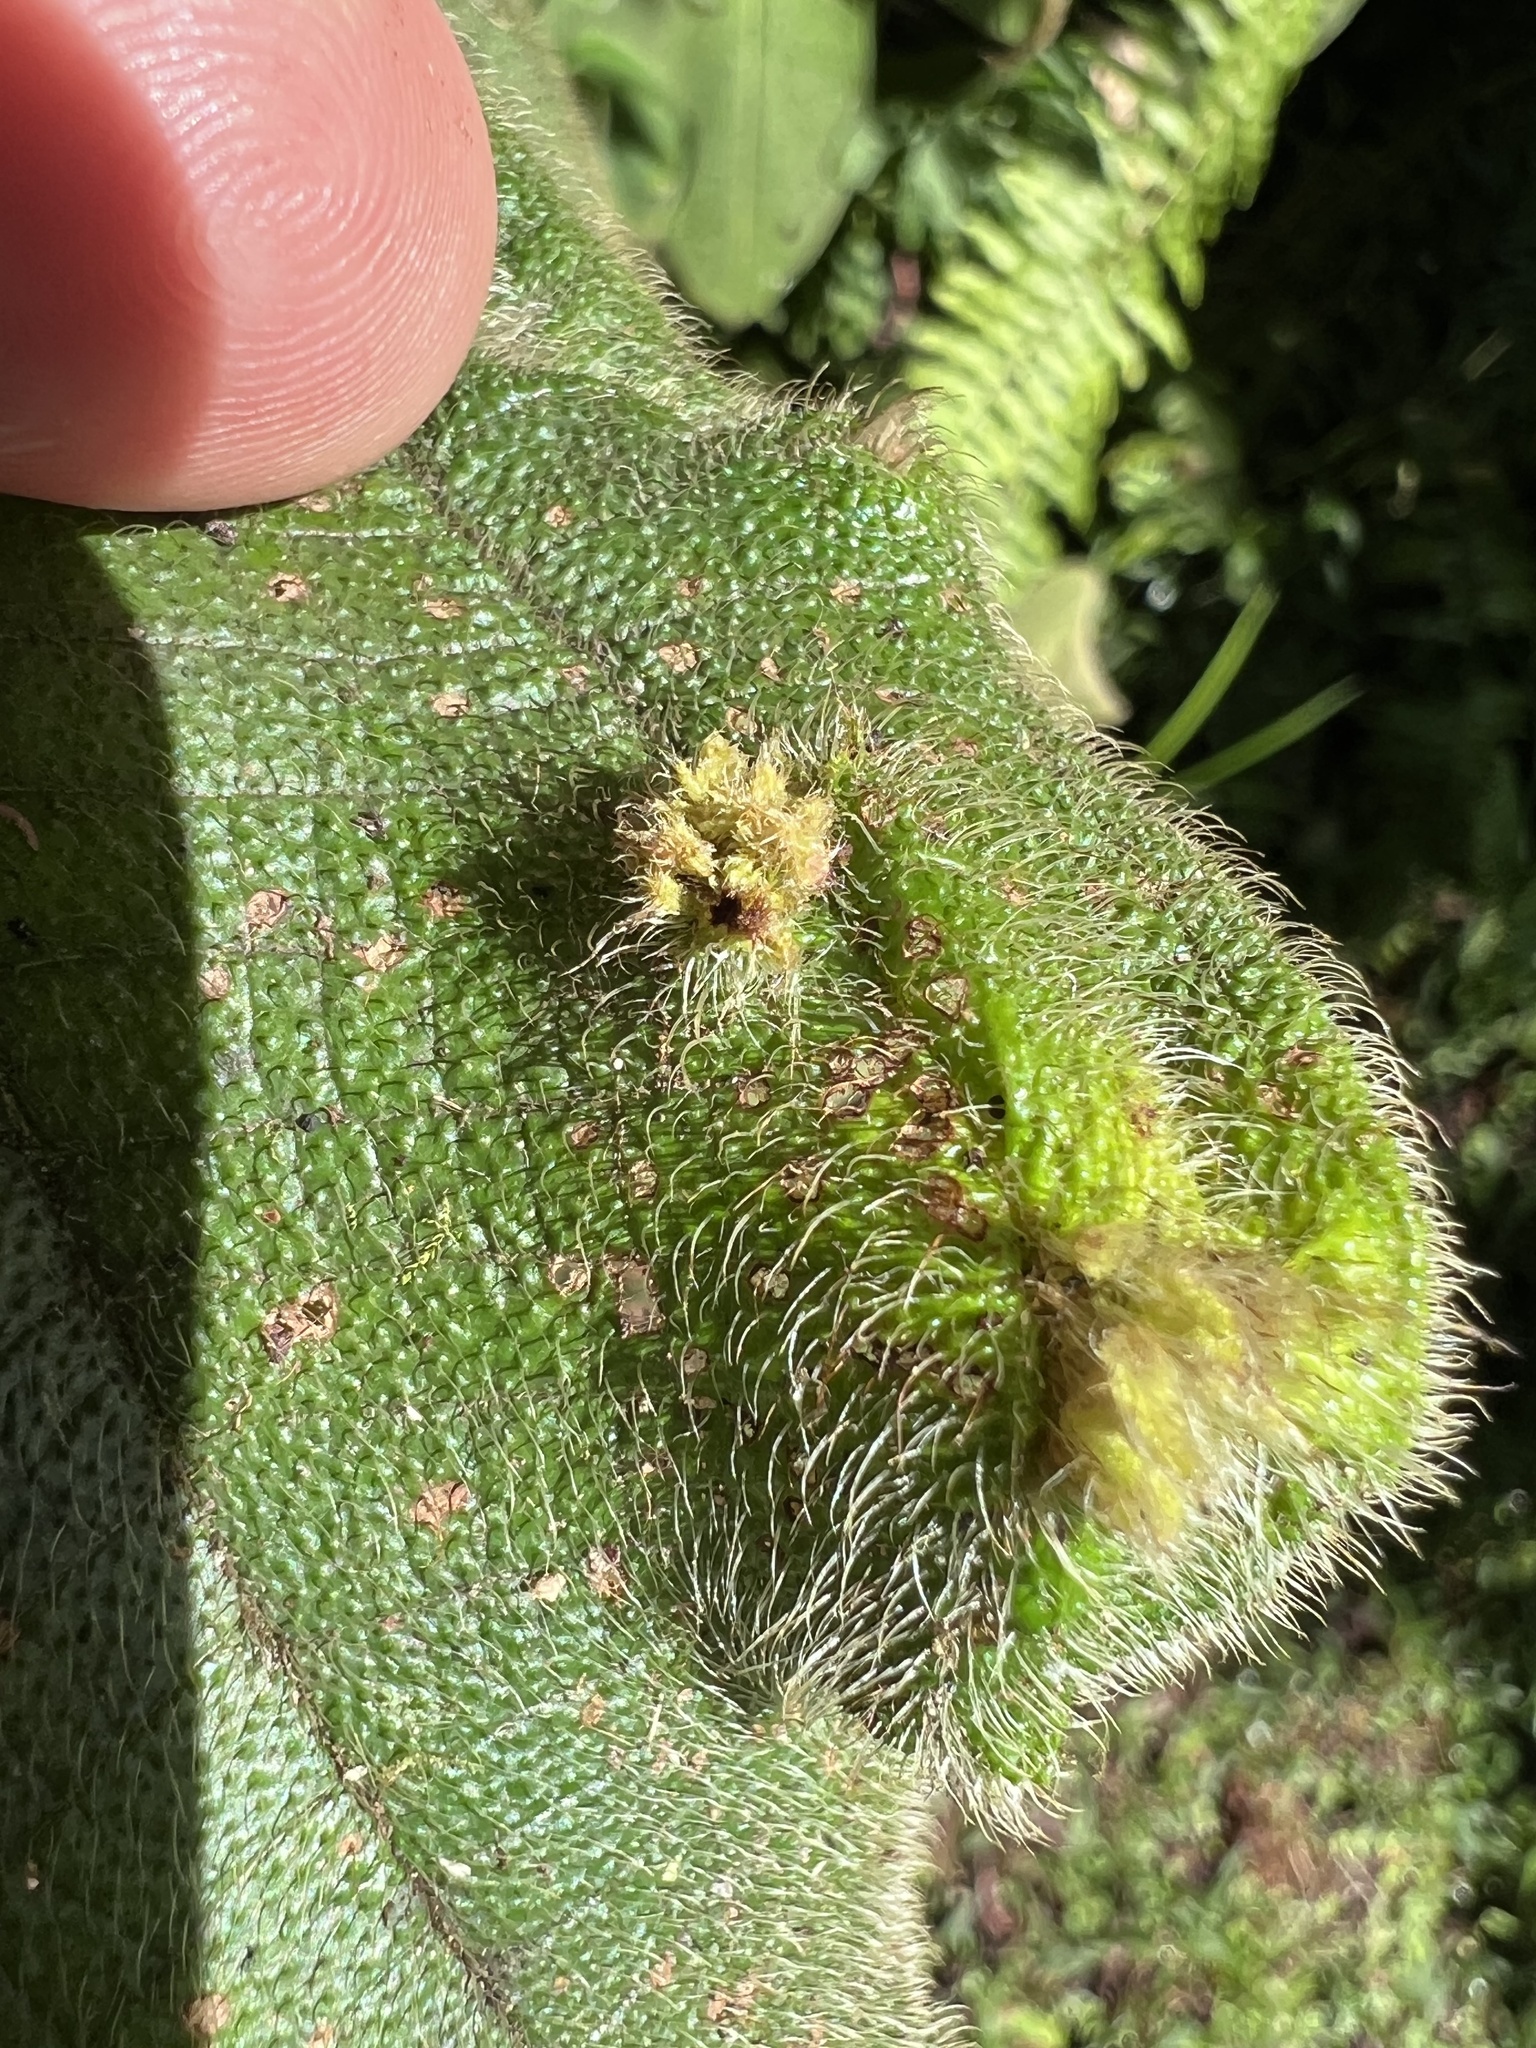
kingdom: Animalia
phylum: Arthropoda
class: Arachnida
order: Trombidiformes
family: Eriophyidae
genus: Eriophyes
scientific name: Eriophyes
